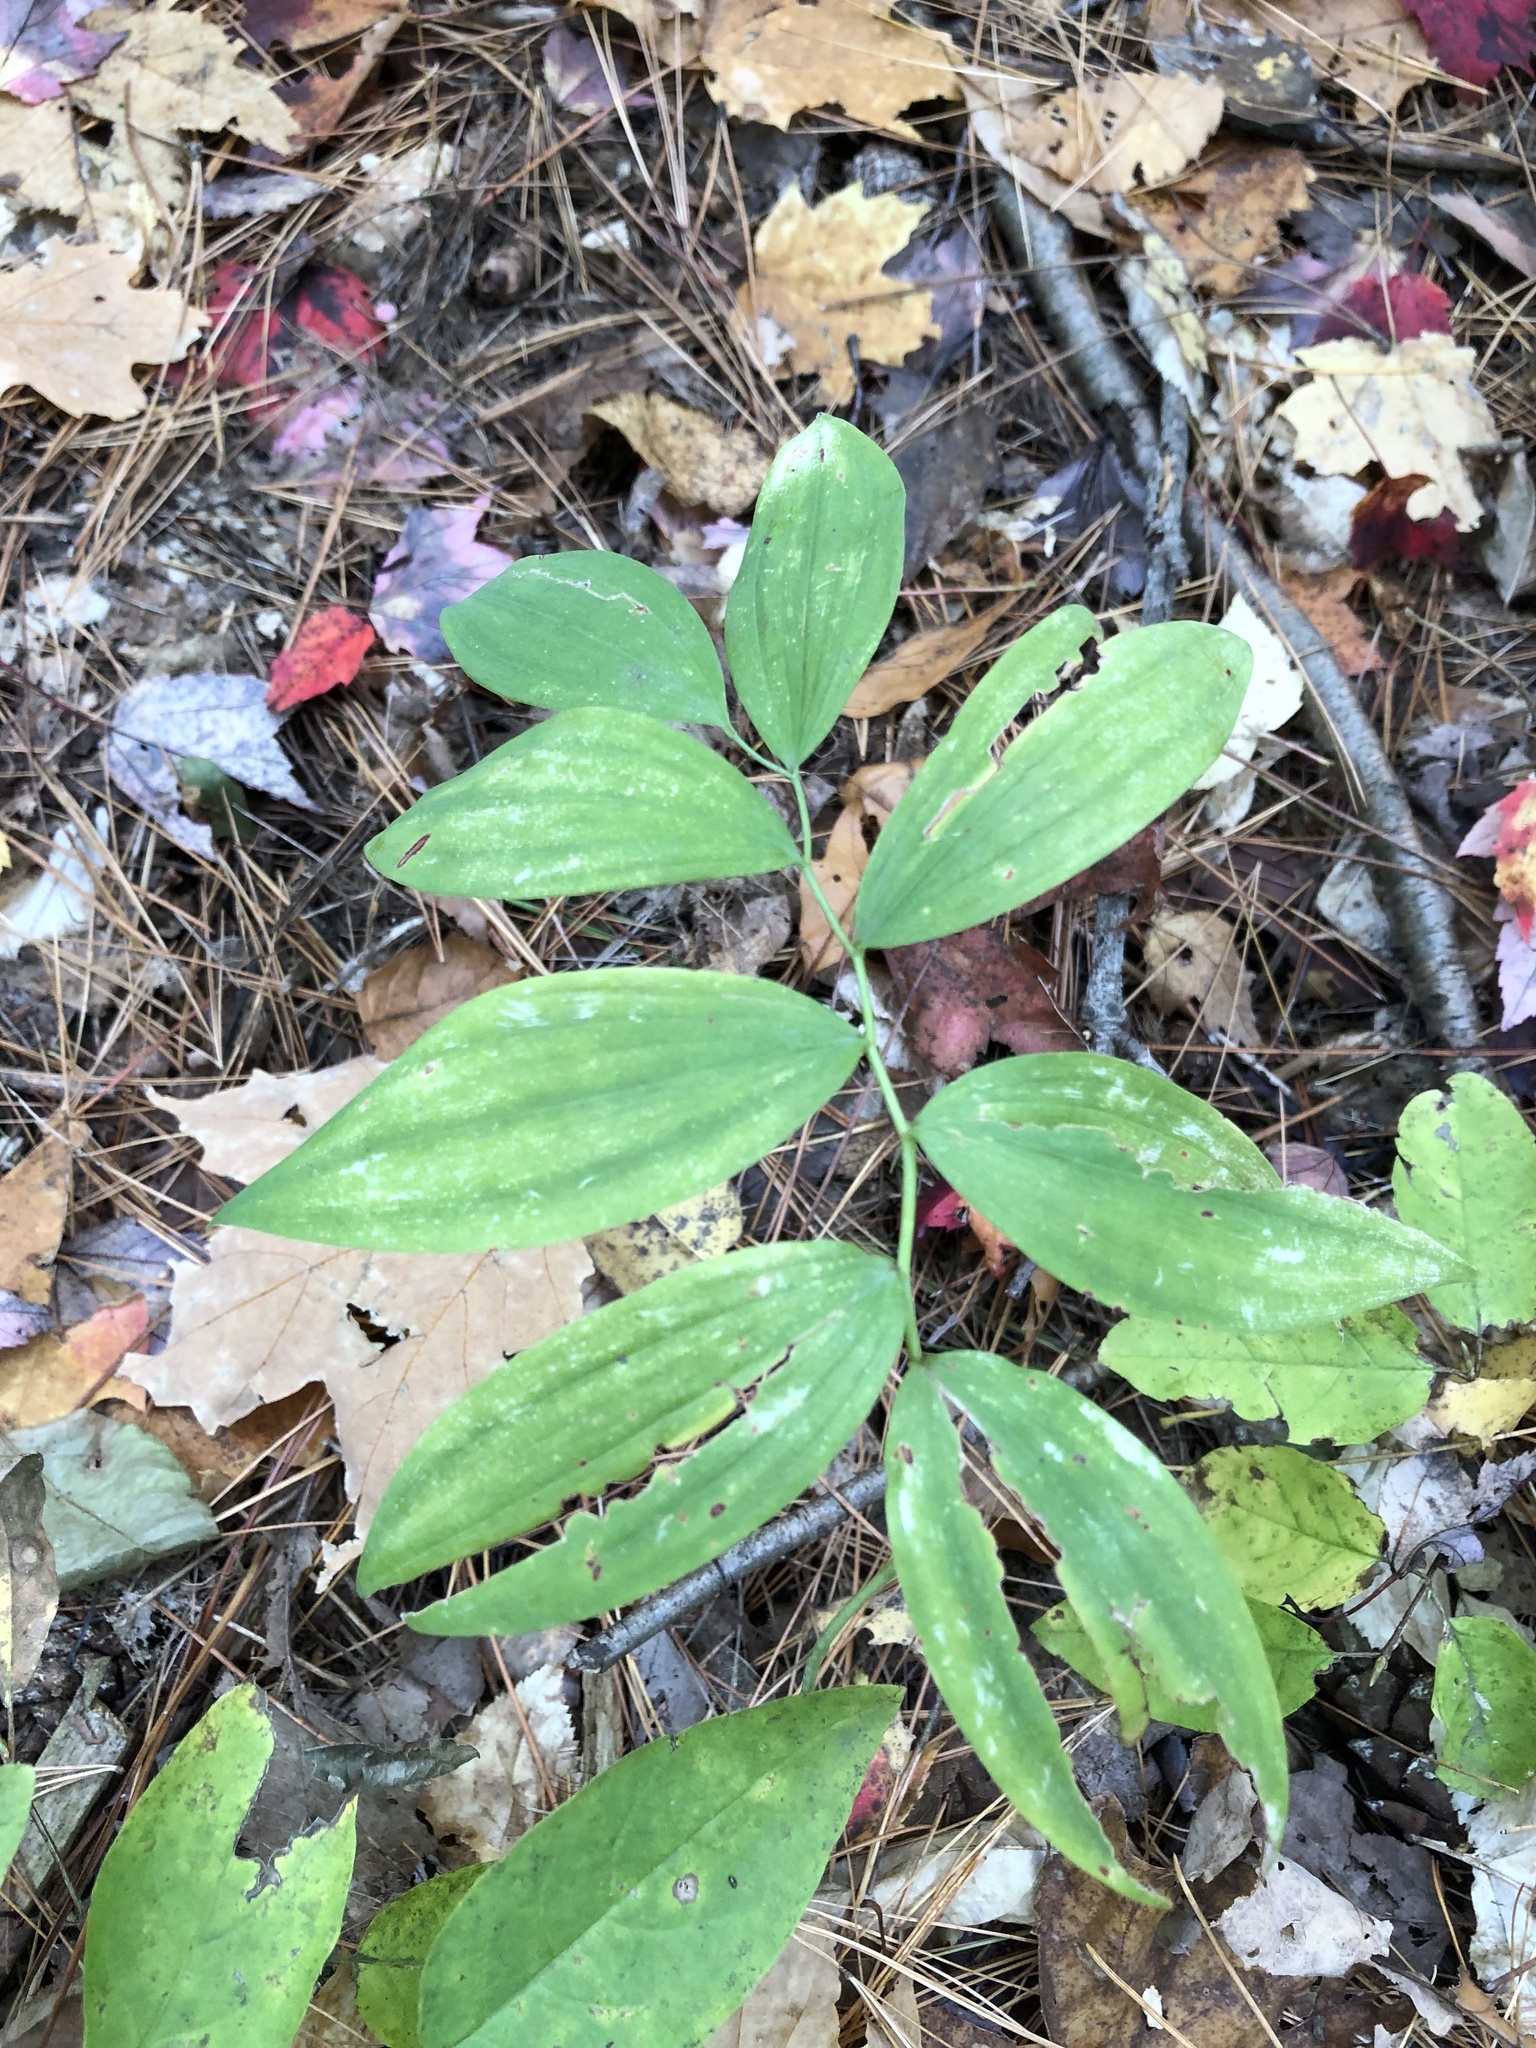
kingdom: Plantae
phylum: Tracheophyta
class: Liliopsida
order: Asparagales
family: Asparagaceae
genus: Polygonatum
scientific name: Polygonatum pubescens
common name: Downy solomon's seal
